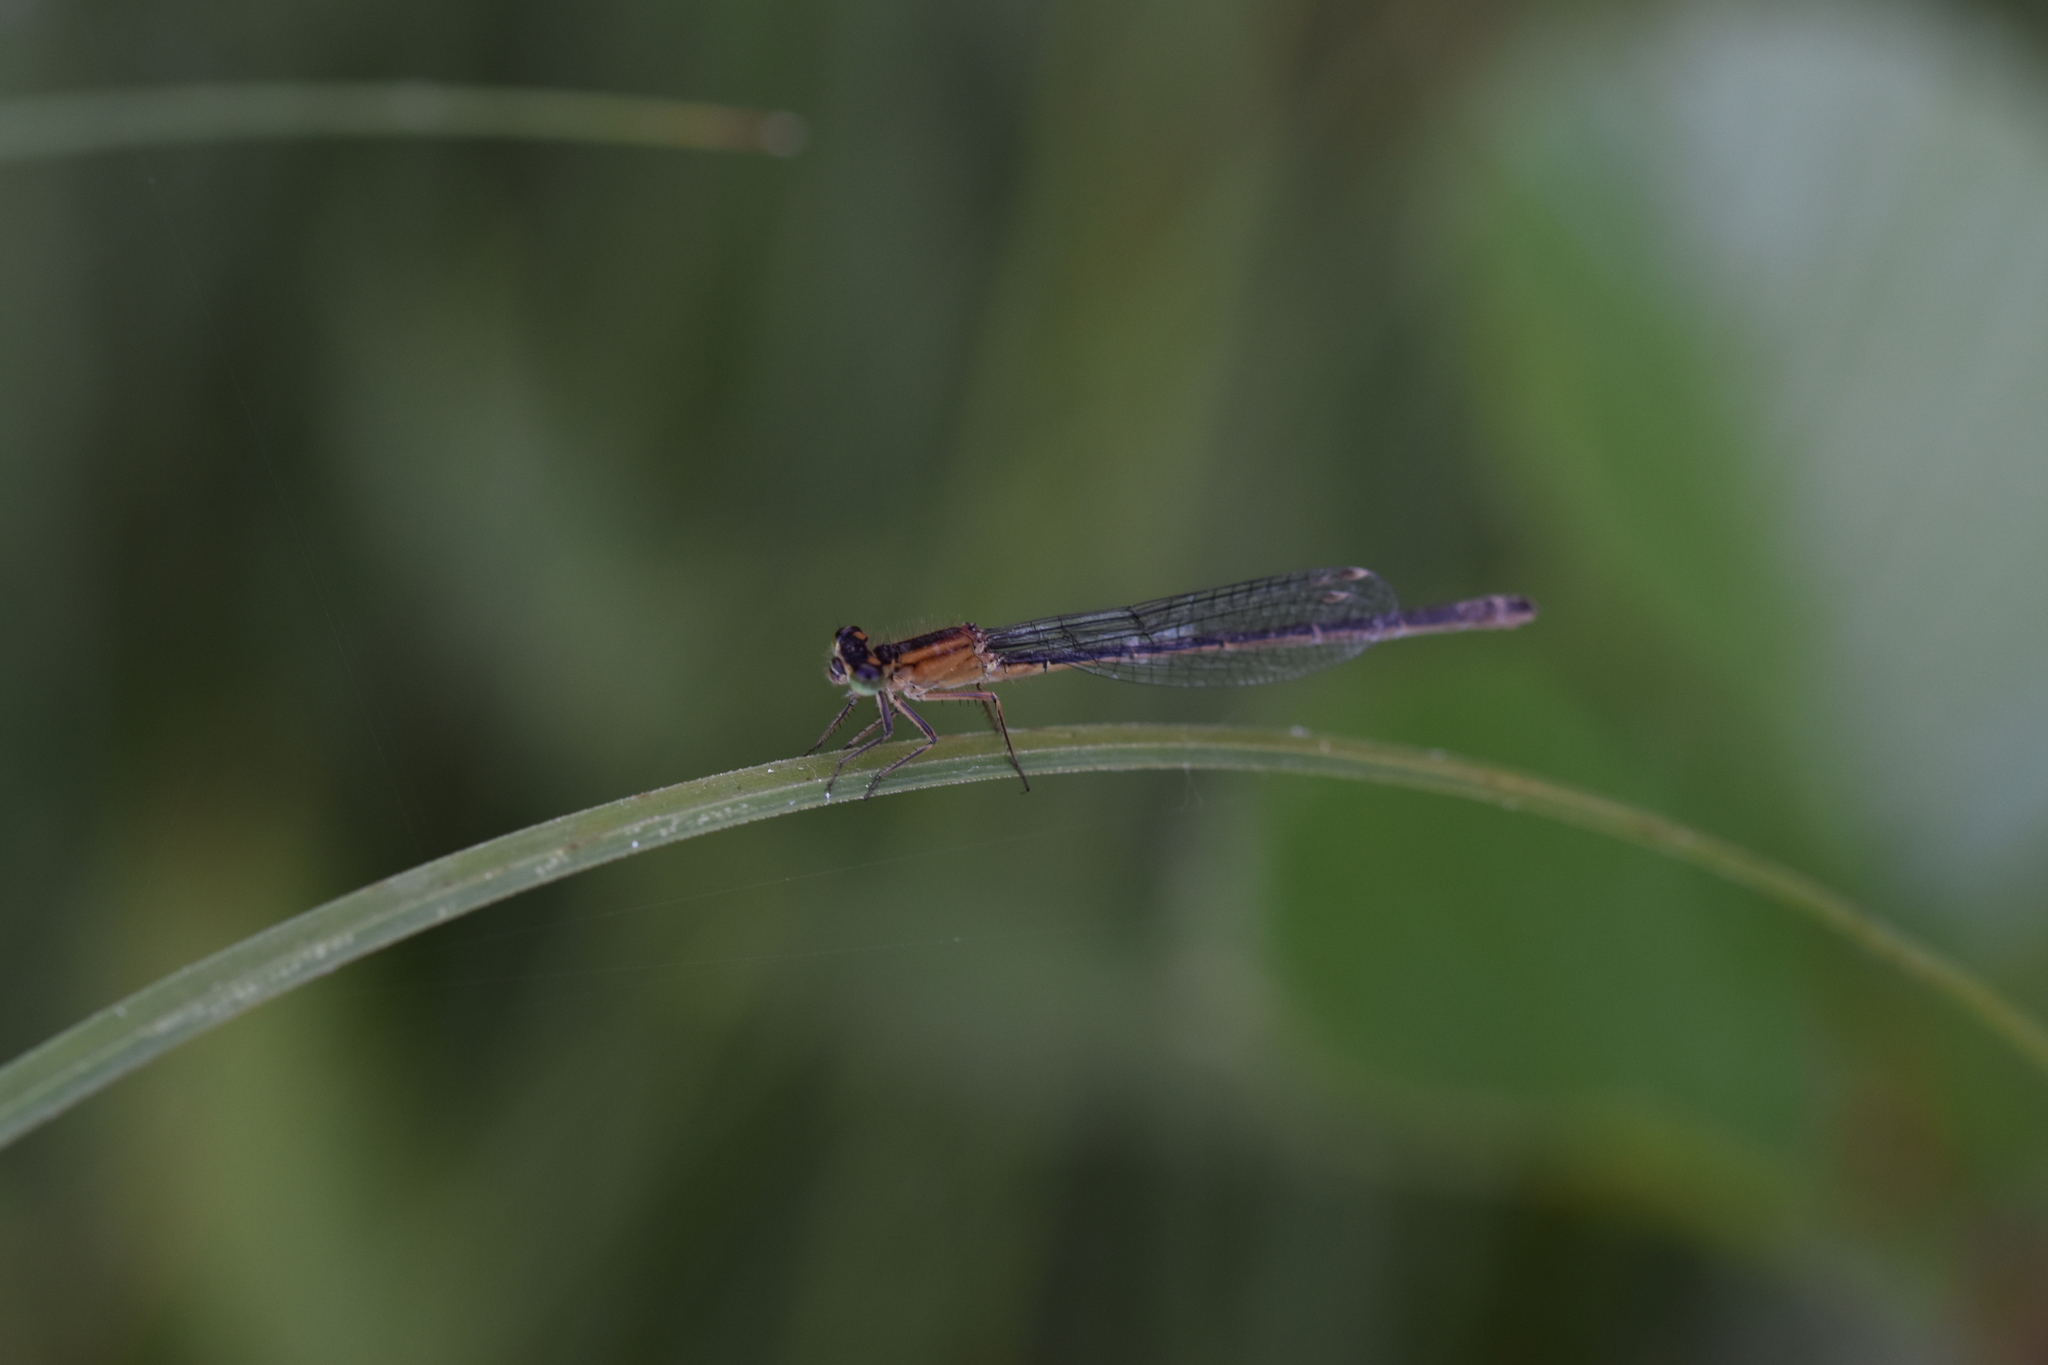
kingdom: Animalia
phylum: Arthropoda
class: Insecta
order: Odonata
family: Coenagrionidae
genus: Ischnura
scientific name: Ischnura elegans
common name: Blue-tailed damselfly
